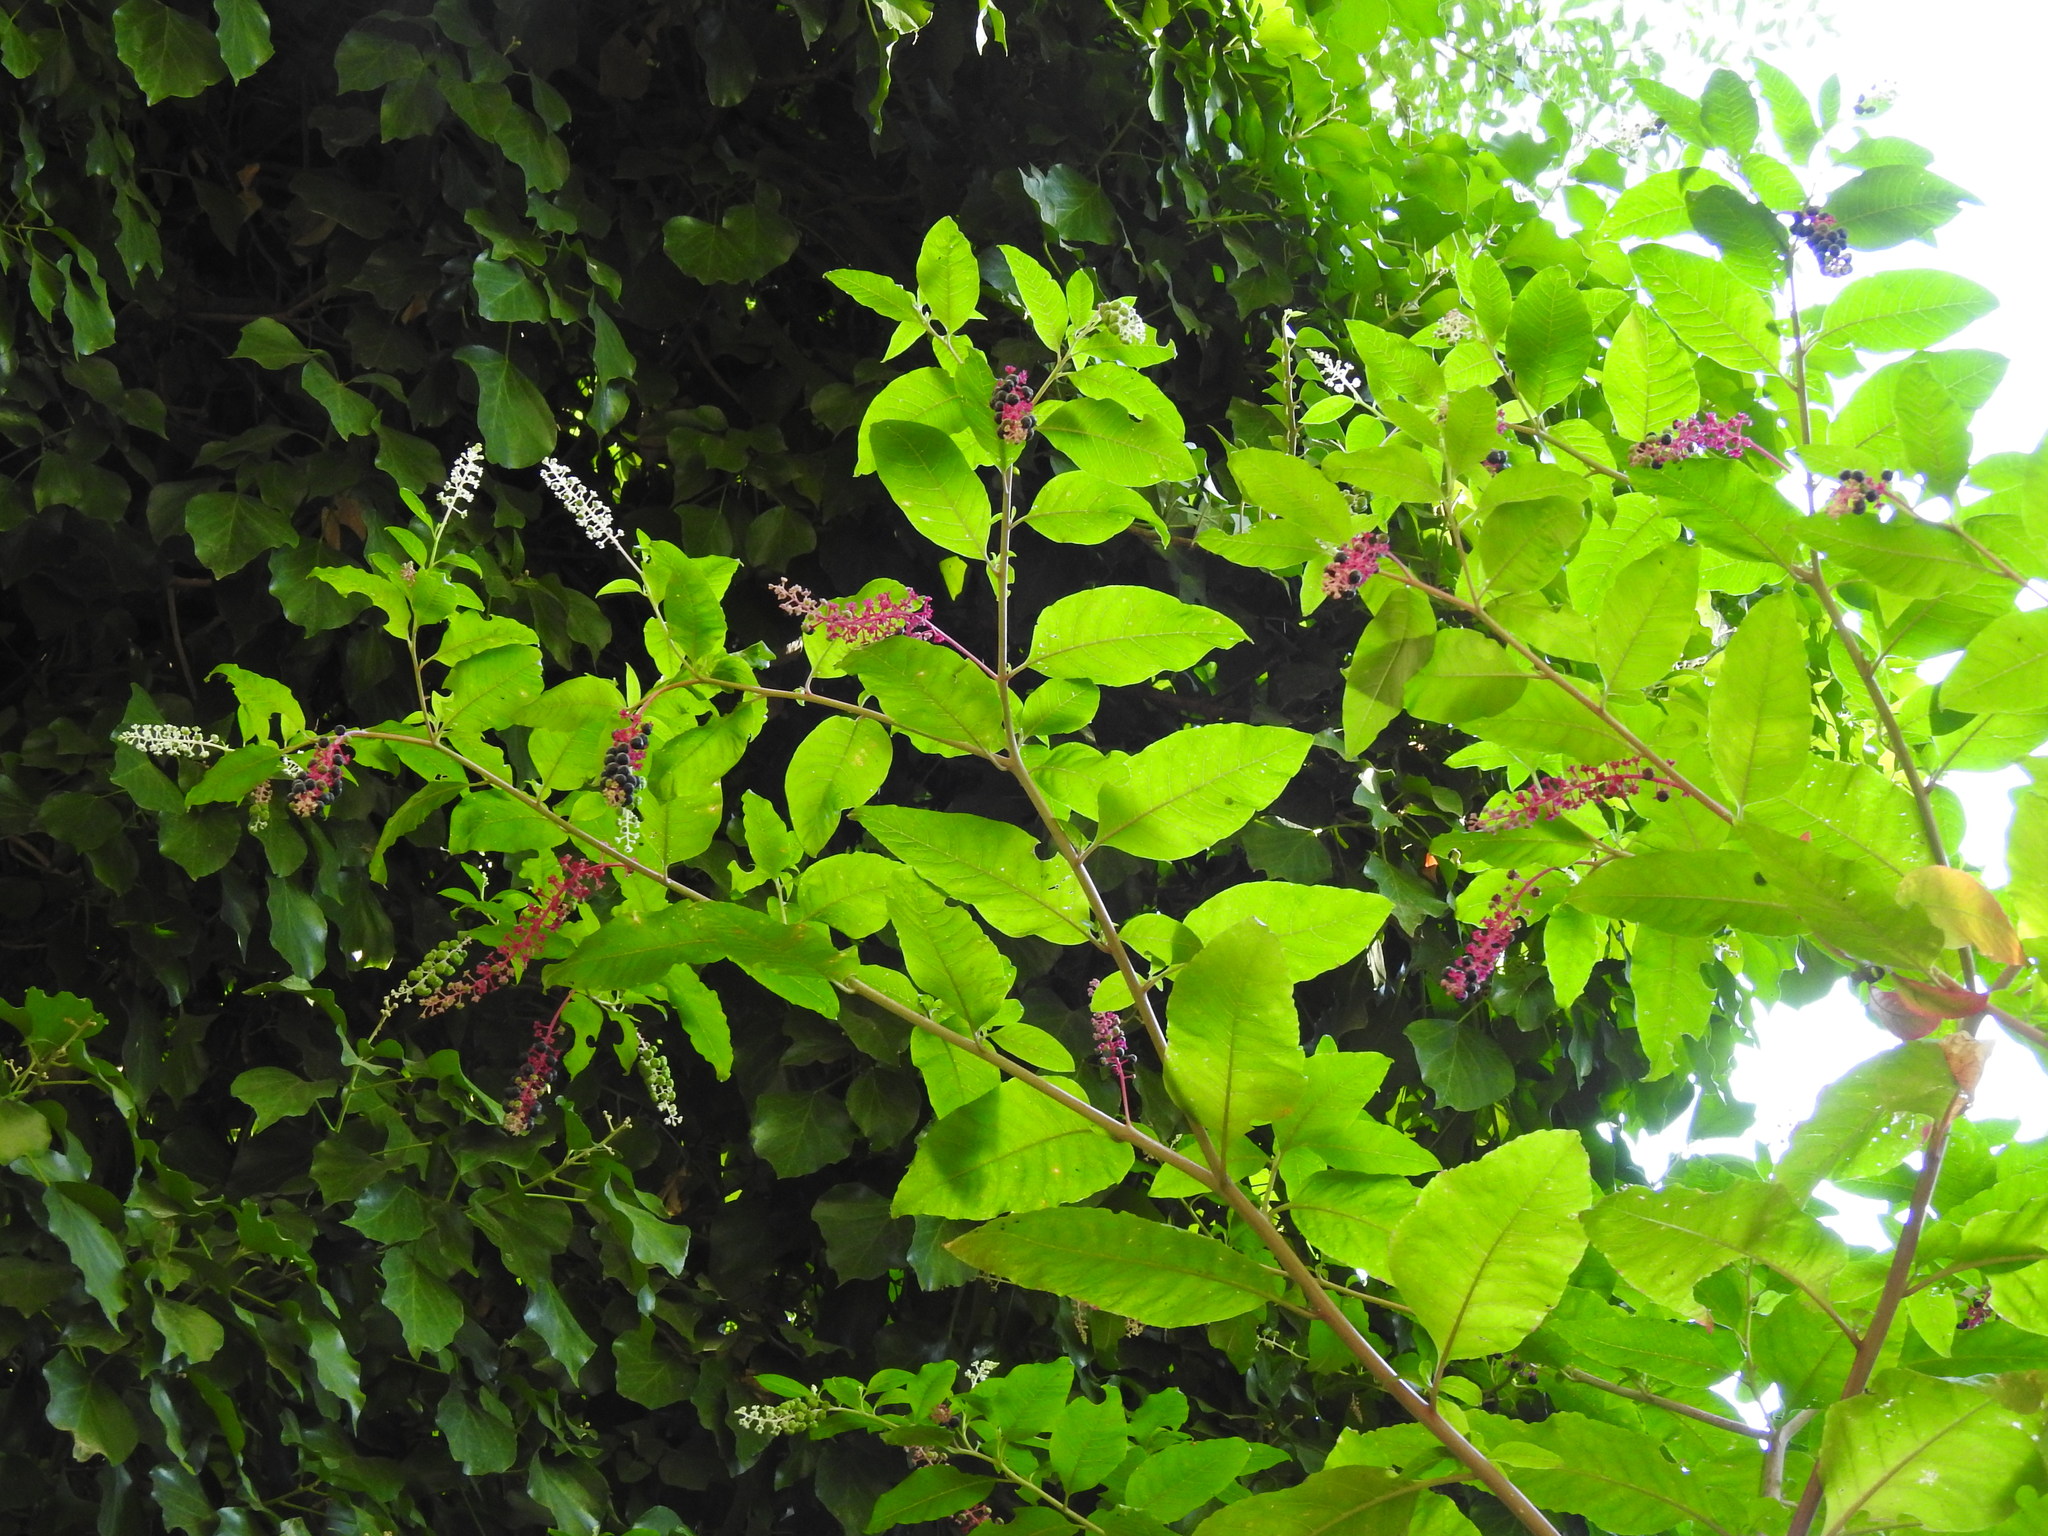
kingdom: Plantae
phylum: Tracheophyta
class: Magnoliopsida
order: Caryophyllales
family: Phytolaccaceae
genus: Phytolacca
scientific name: Phytolacca americana
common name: American pokeweed
